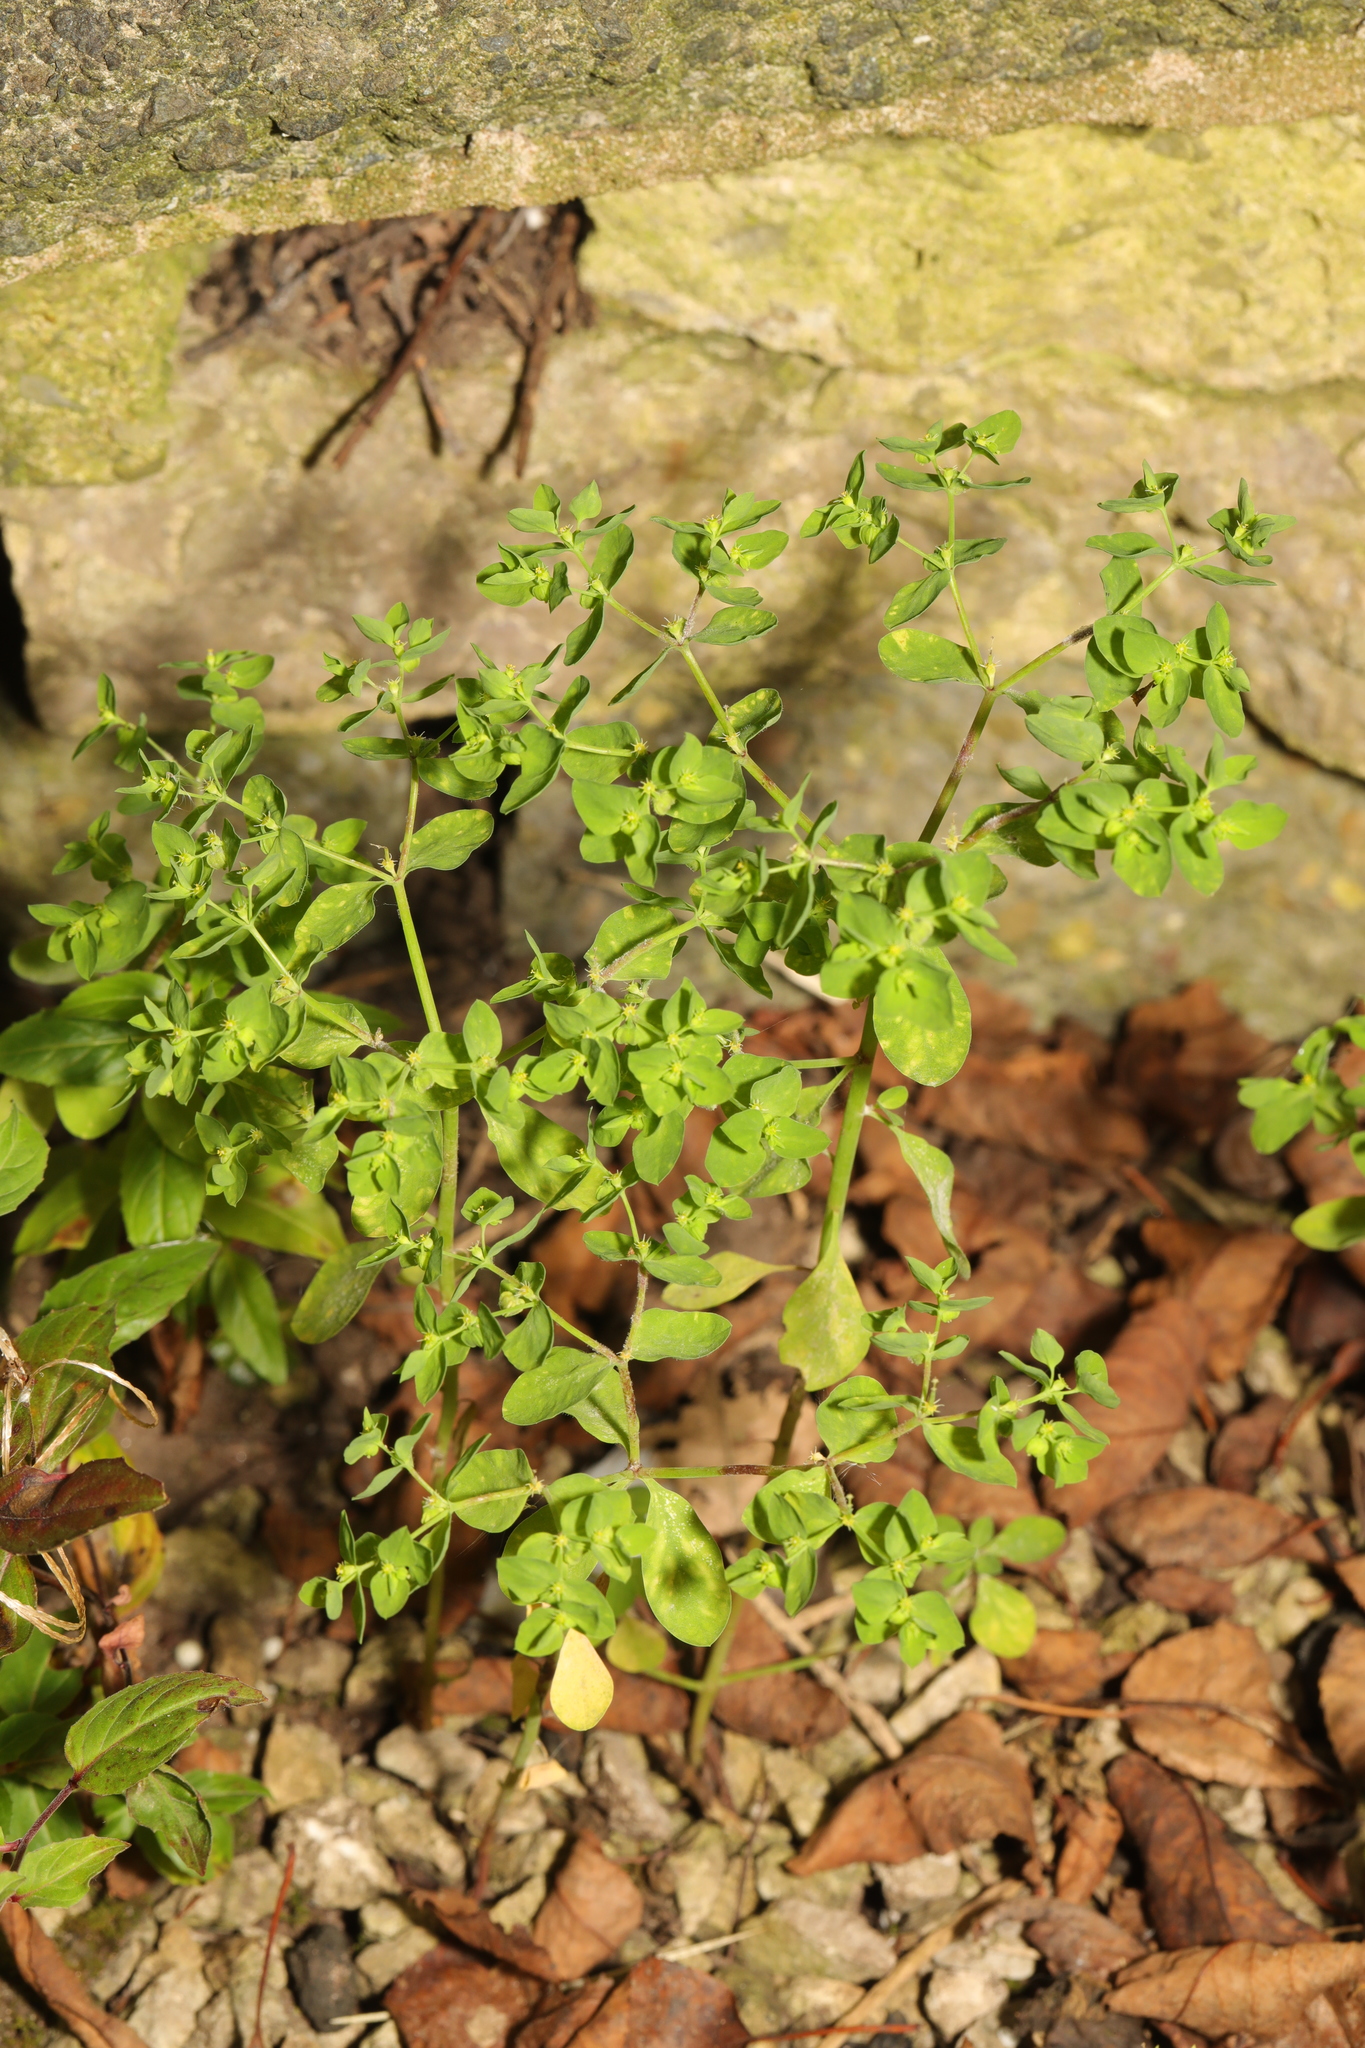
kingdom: Plantae
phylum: Tracheophyta
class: Magnoliopsida
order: Malpighiales
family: Euphorbiaceae
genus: Euphorbia
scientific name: Euphorbia peplus
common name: Petty spurge
